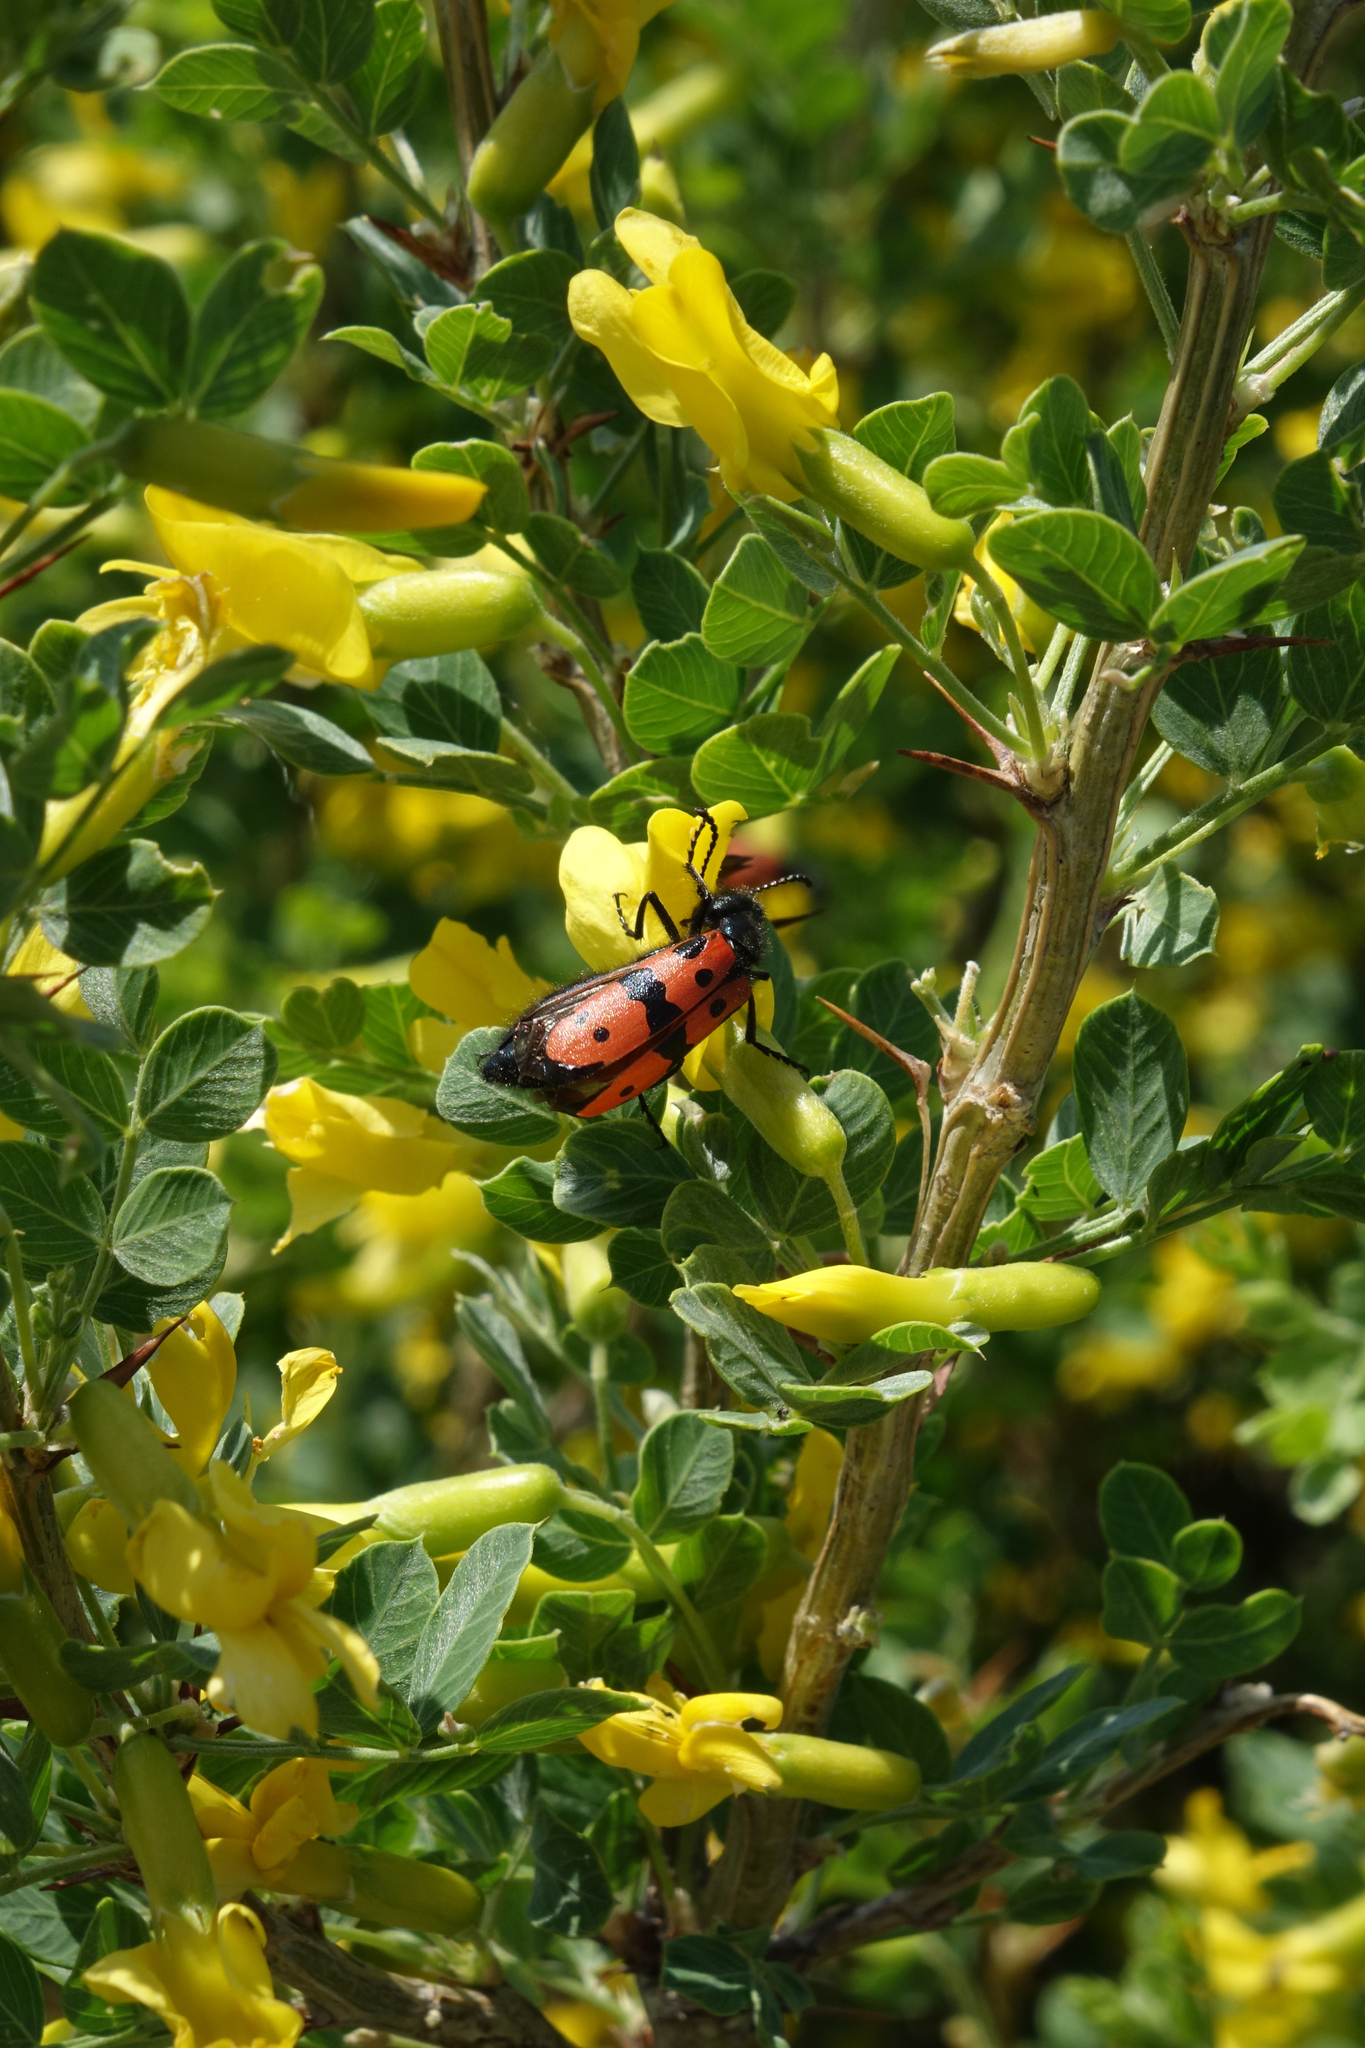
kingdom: Plantae
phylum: Tracheophyta
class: Magnoliopsida
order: Fabales
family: Fabaceae
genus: Caragana
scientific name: Caragana bungei
